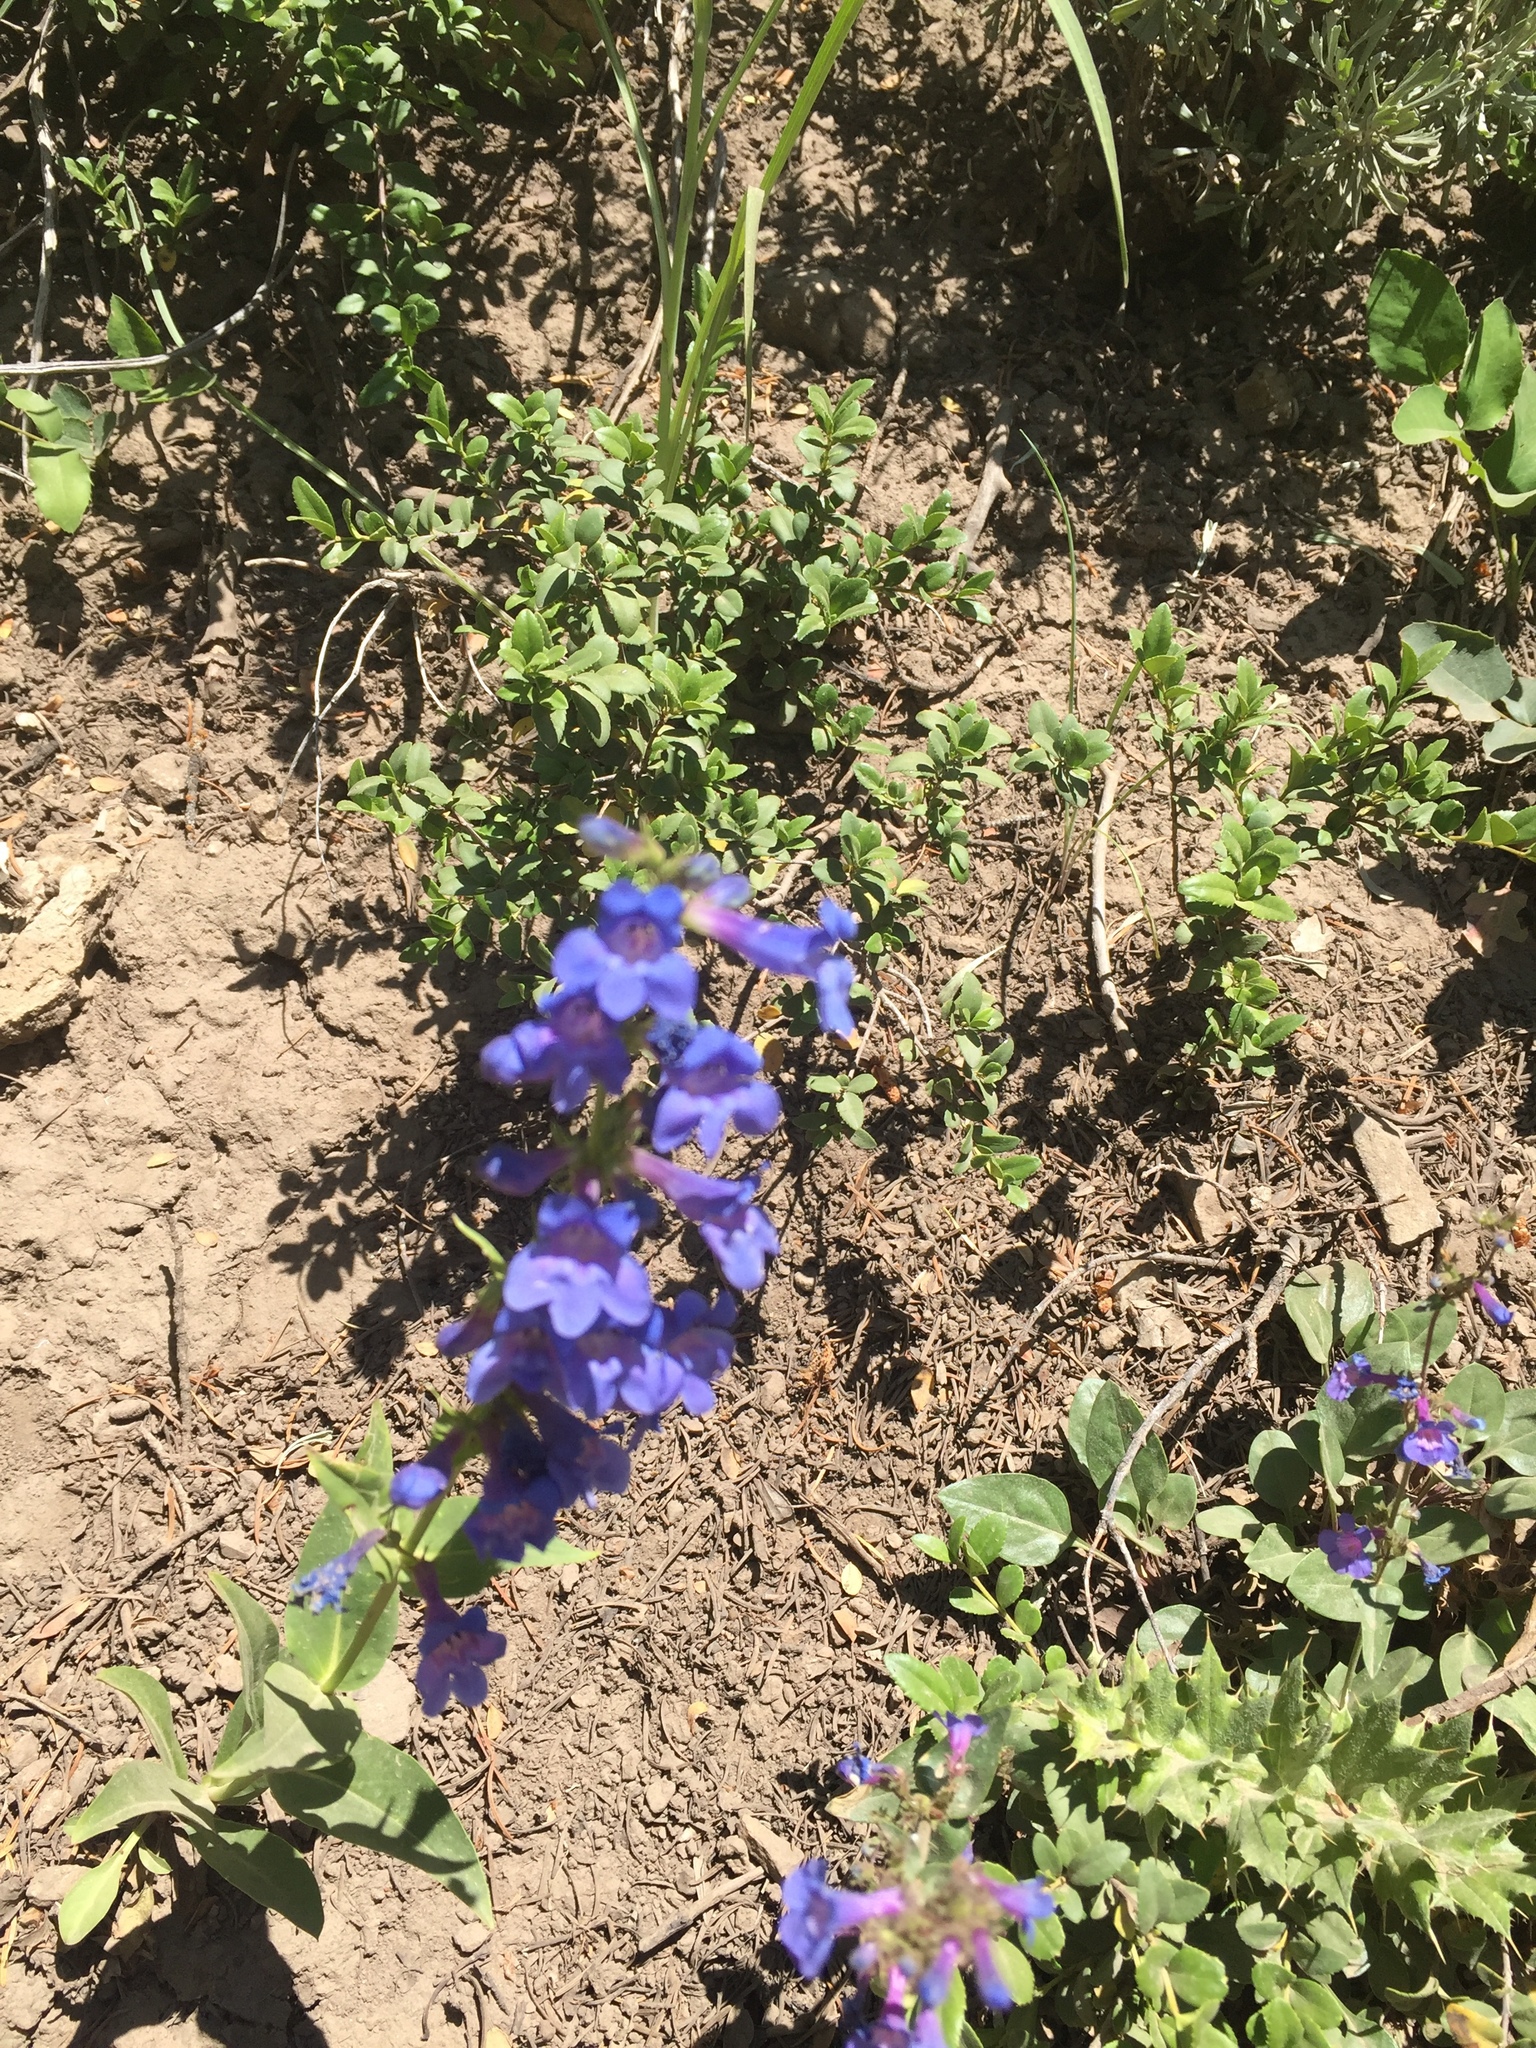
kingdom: Plantae
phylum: Tracheophyta
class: Magnoliopsida
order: Lamiales
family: Plantaginaceae
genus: Penstemon
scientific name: Penstemon cyananthus
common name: Wasatch penstemon
